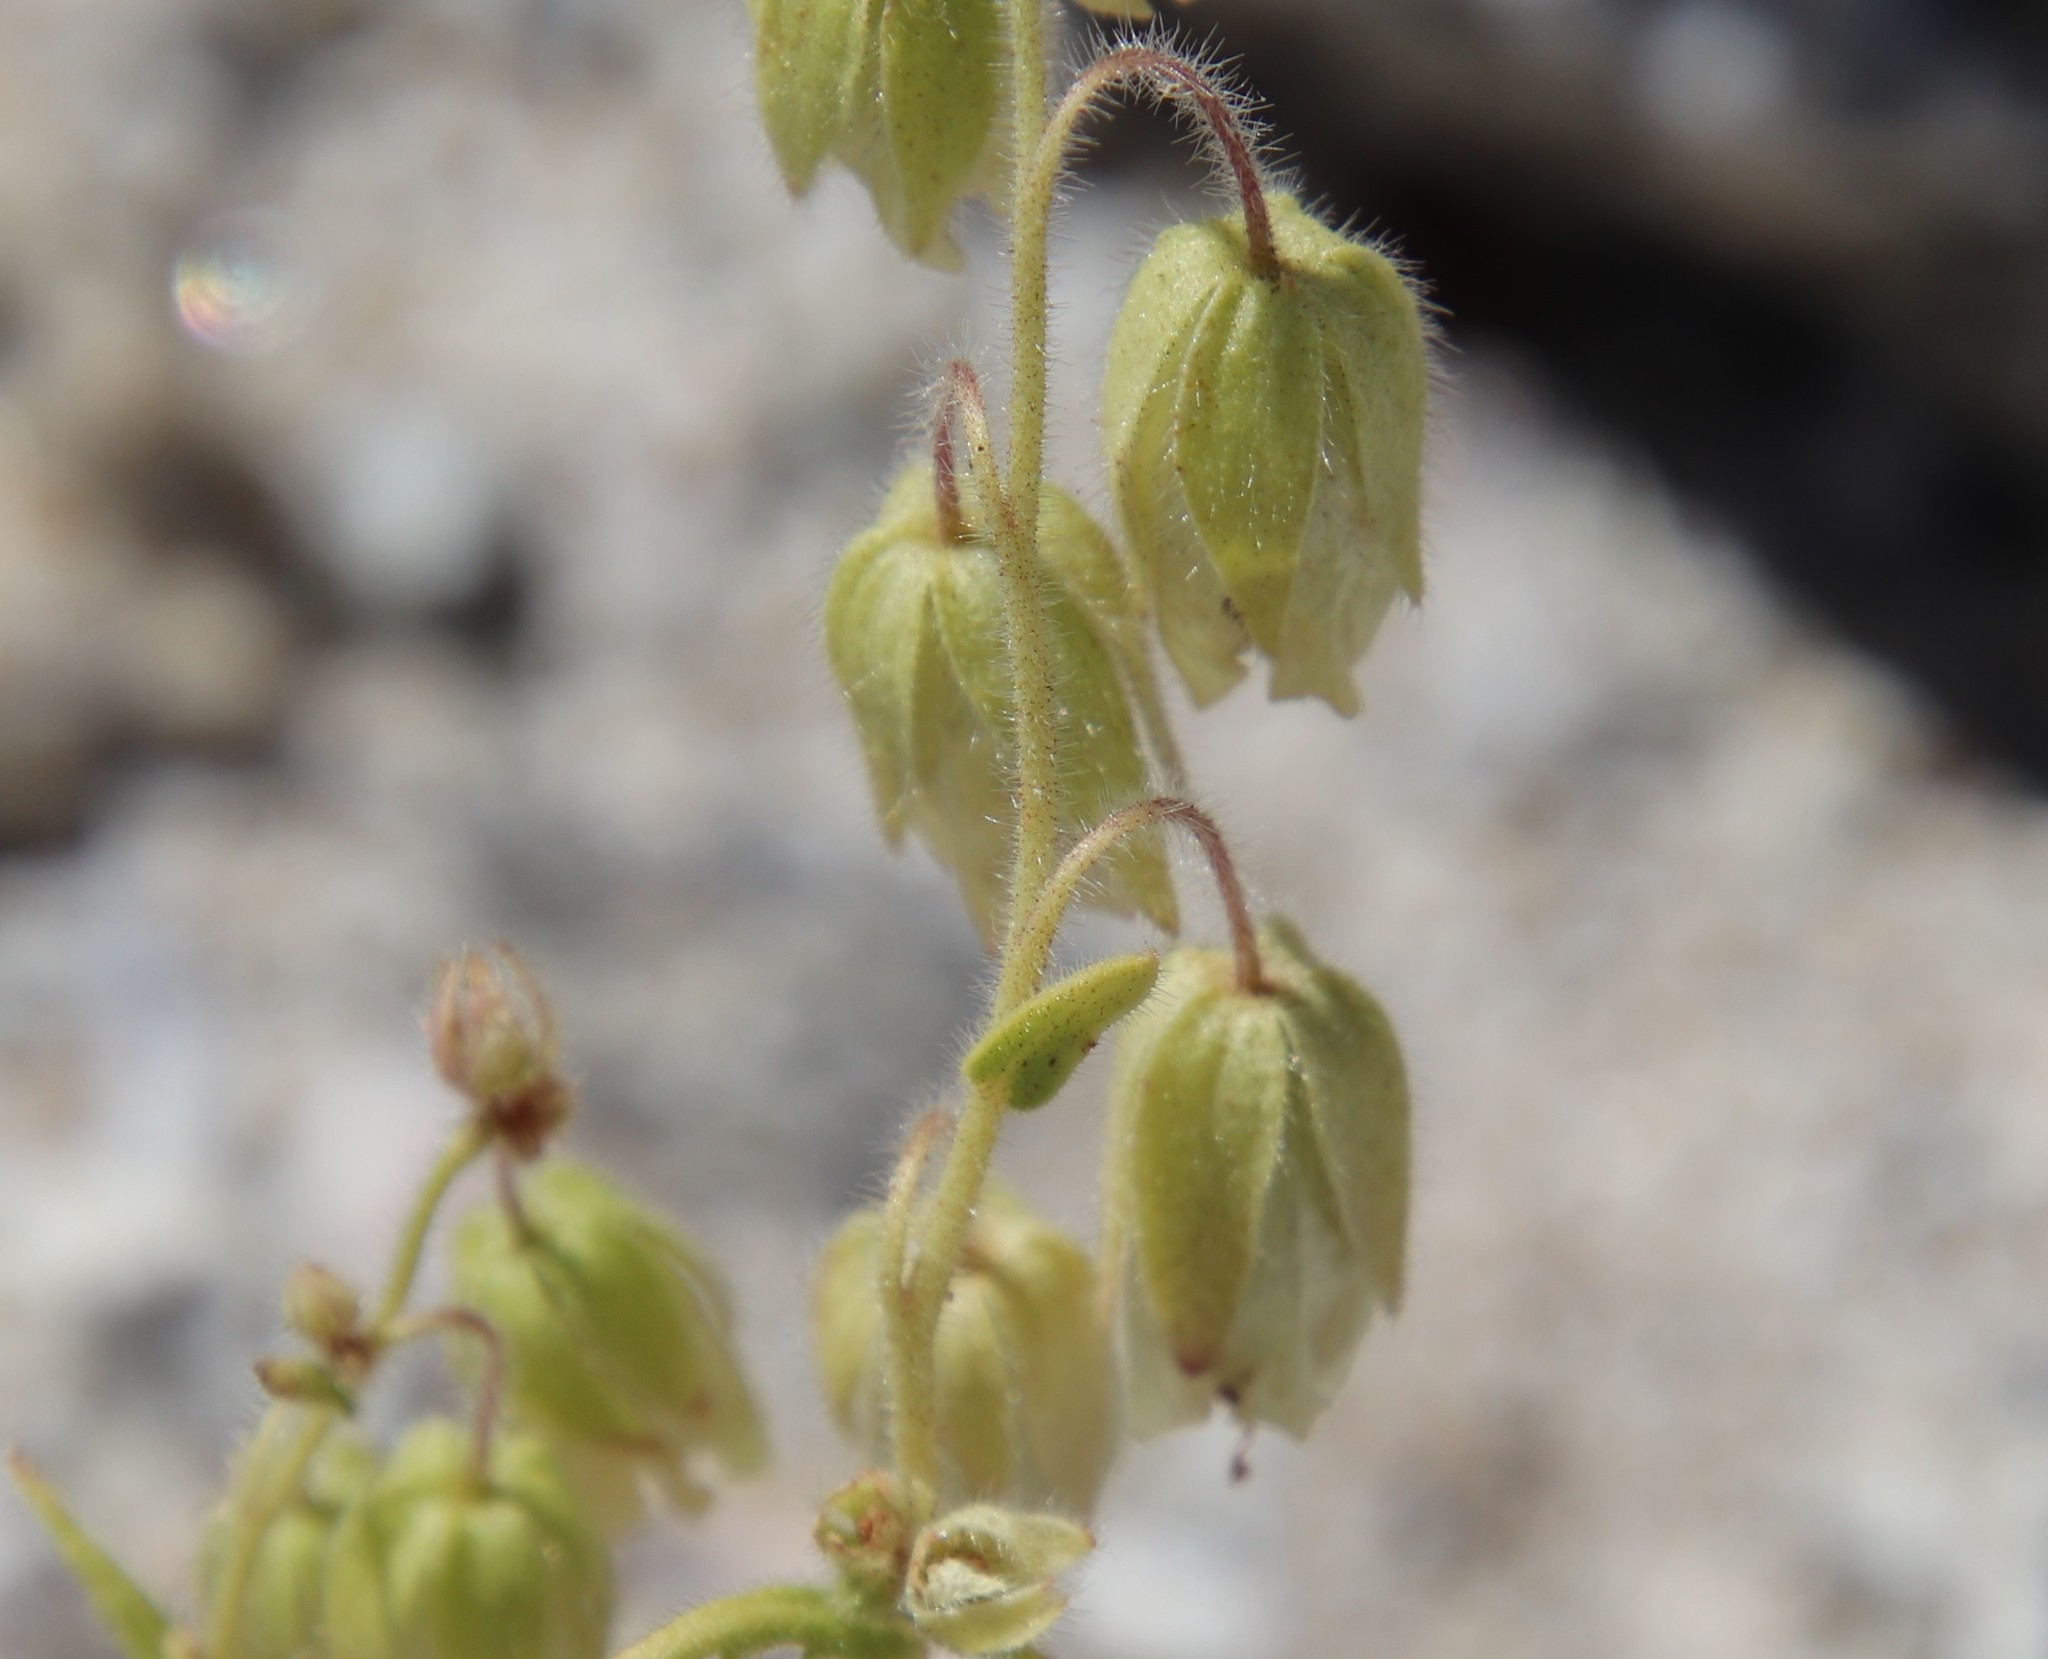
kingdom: Plantae
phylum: Tracheophyta
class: Magnoliopsida
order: Boraginales
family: Hydrophyllaceae
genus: Emmenanthe
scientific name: Emmenanthe penduliflora
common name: Whispering-bells
